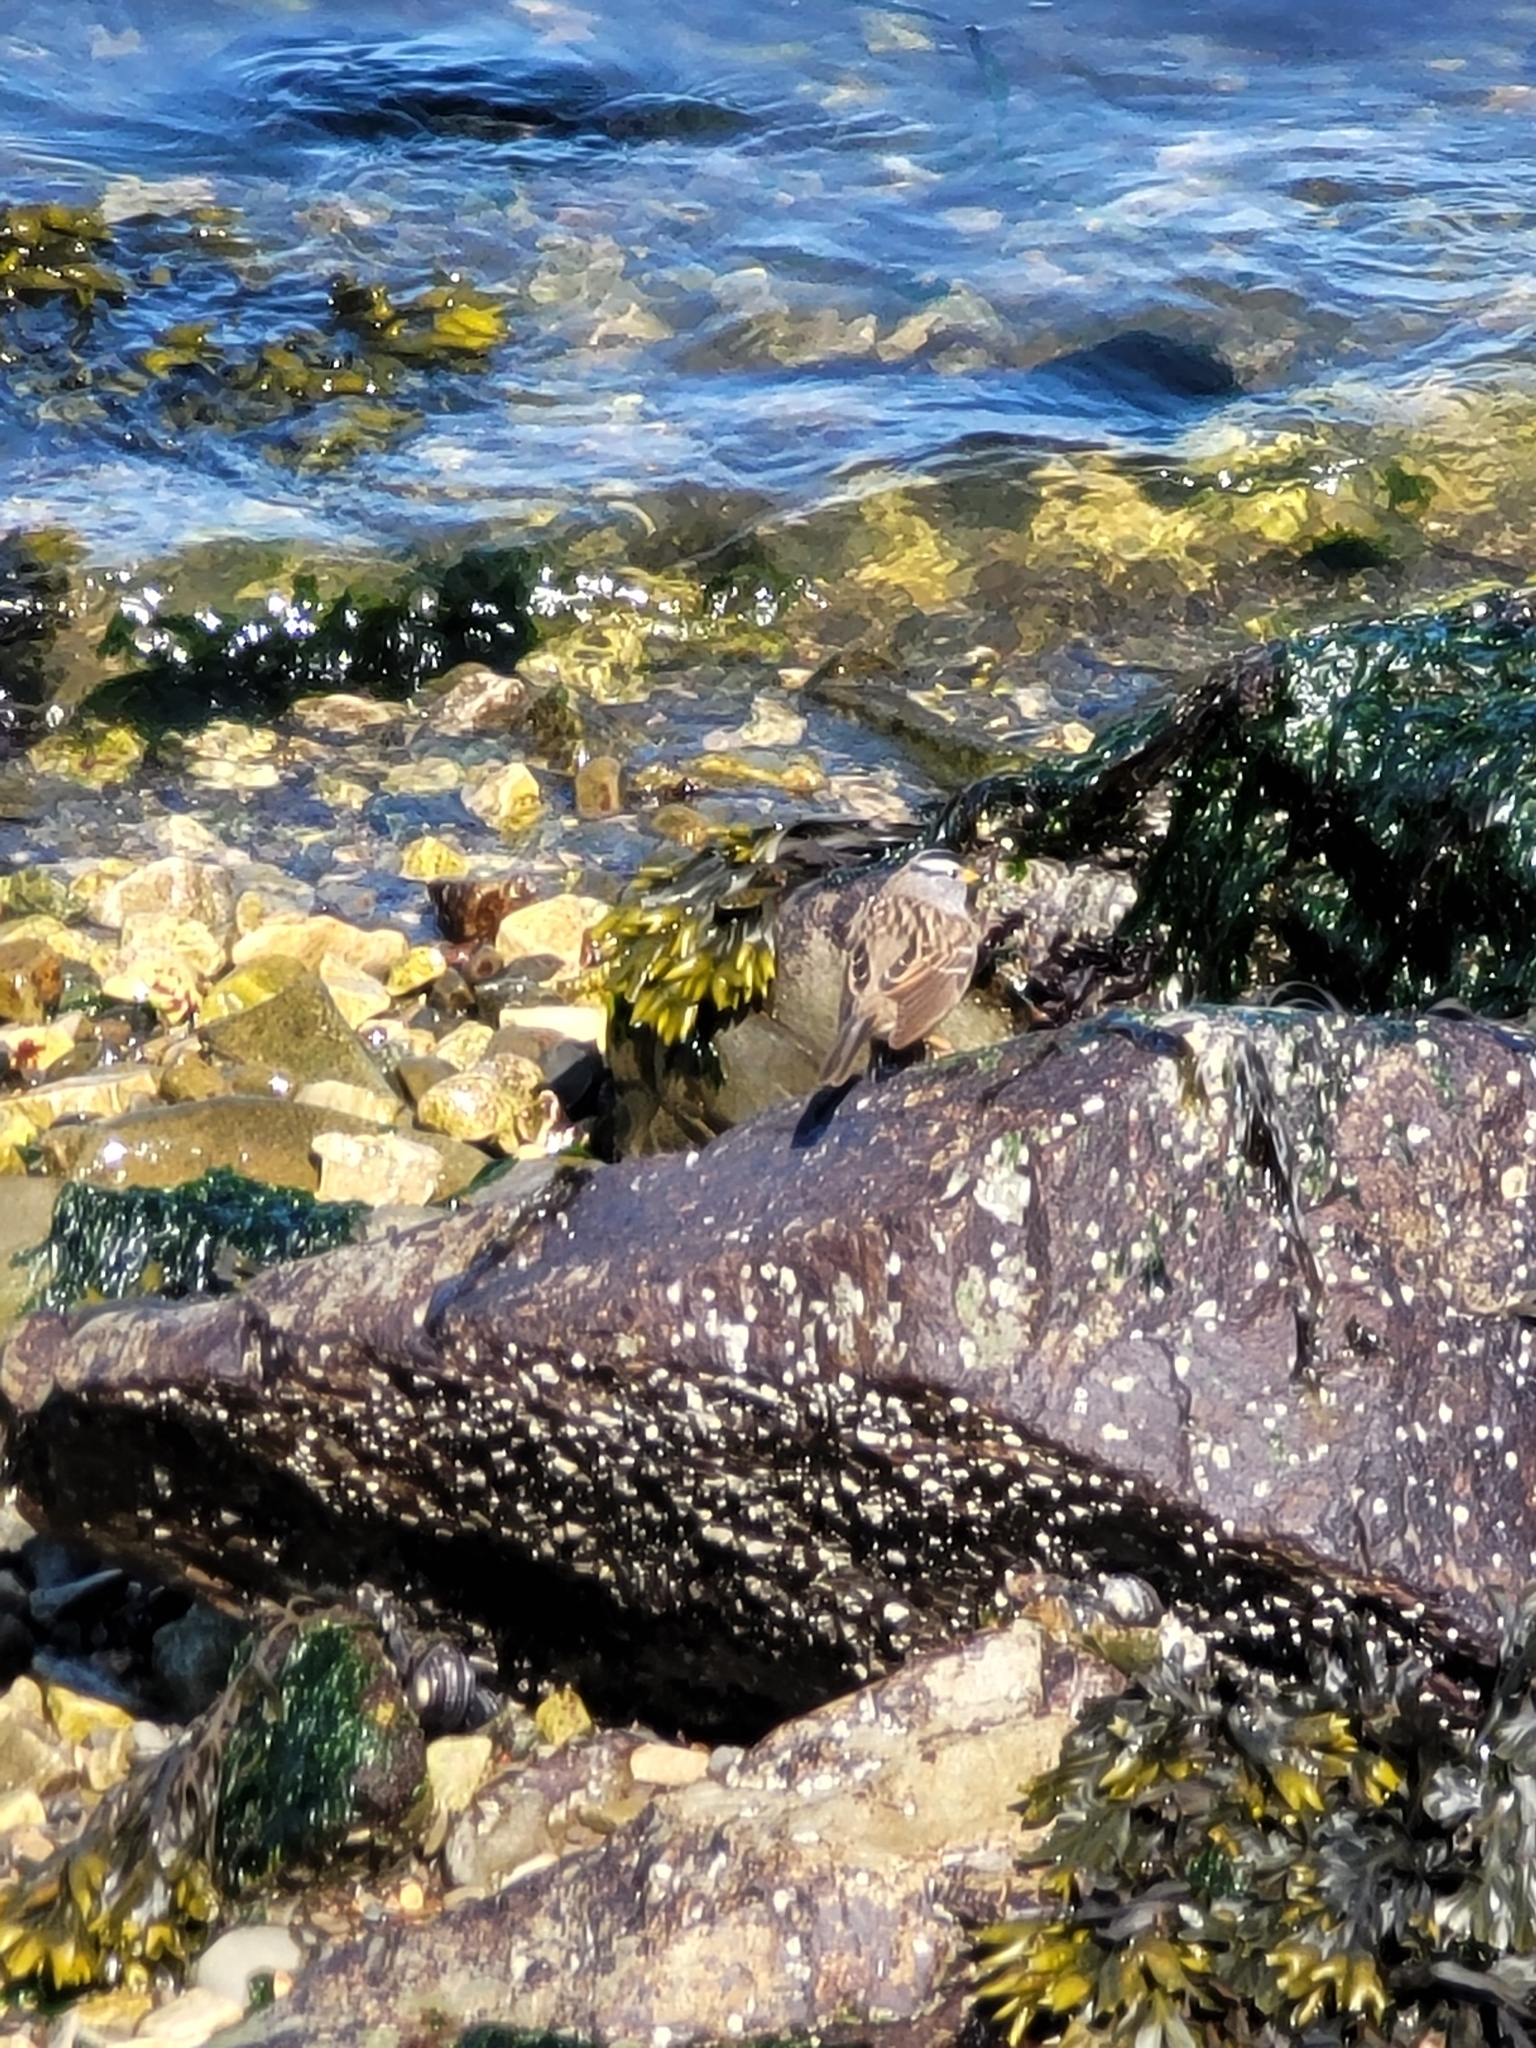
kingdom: Animalia
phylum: Chordata
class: Aves
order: Passeriformes
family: Passerellidae
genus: Zonotrichia
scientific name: Zonotrichia leucophrys
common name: White-crowned sparrow
